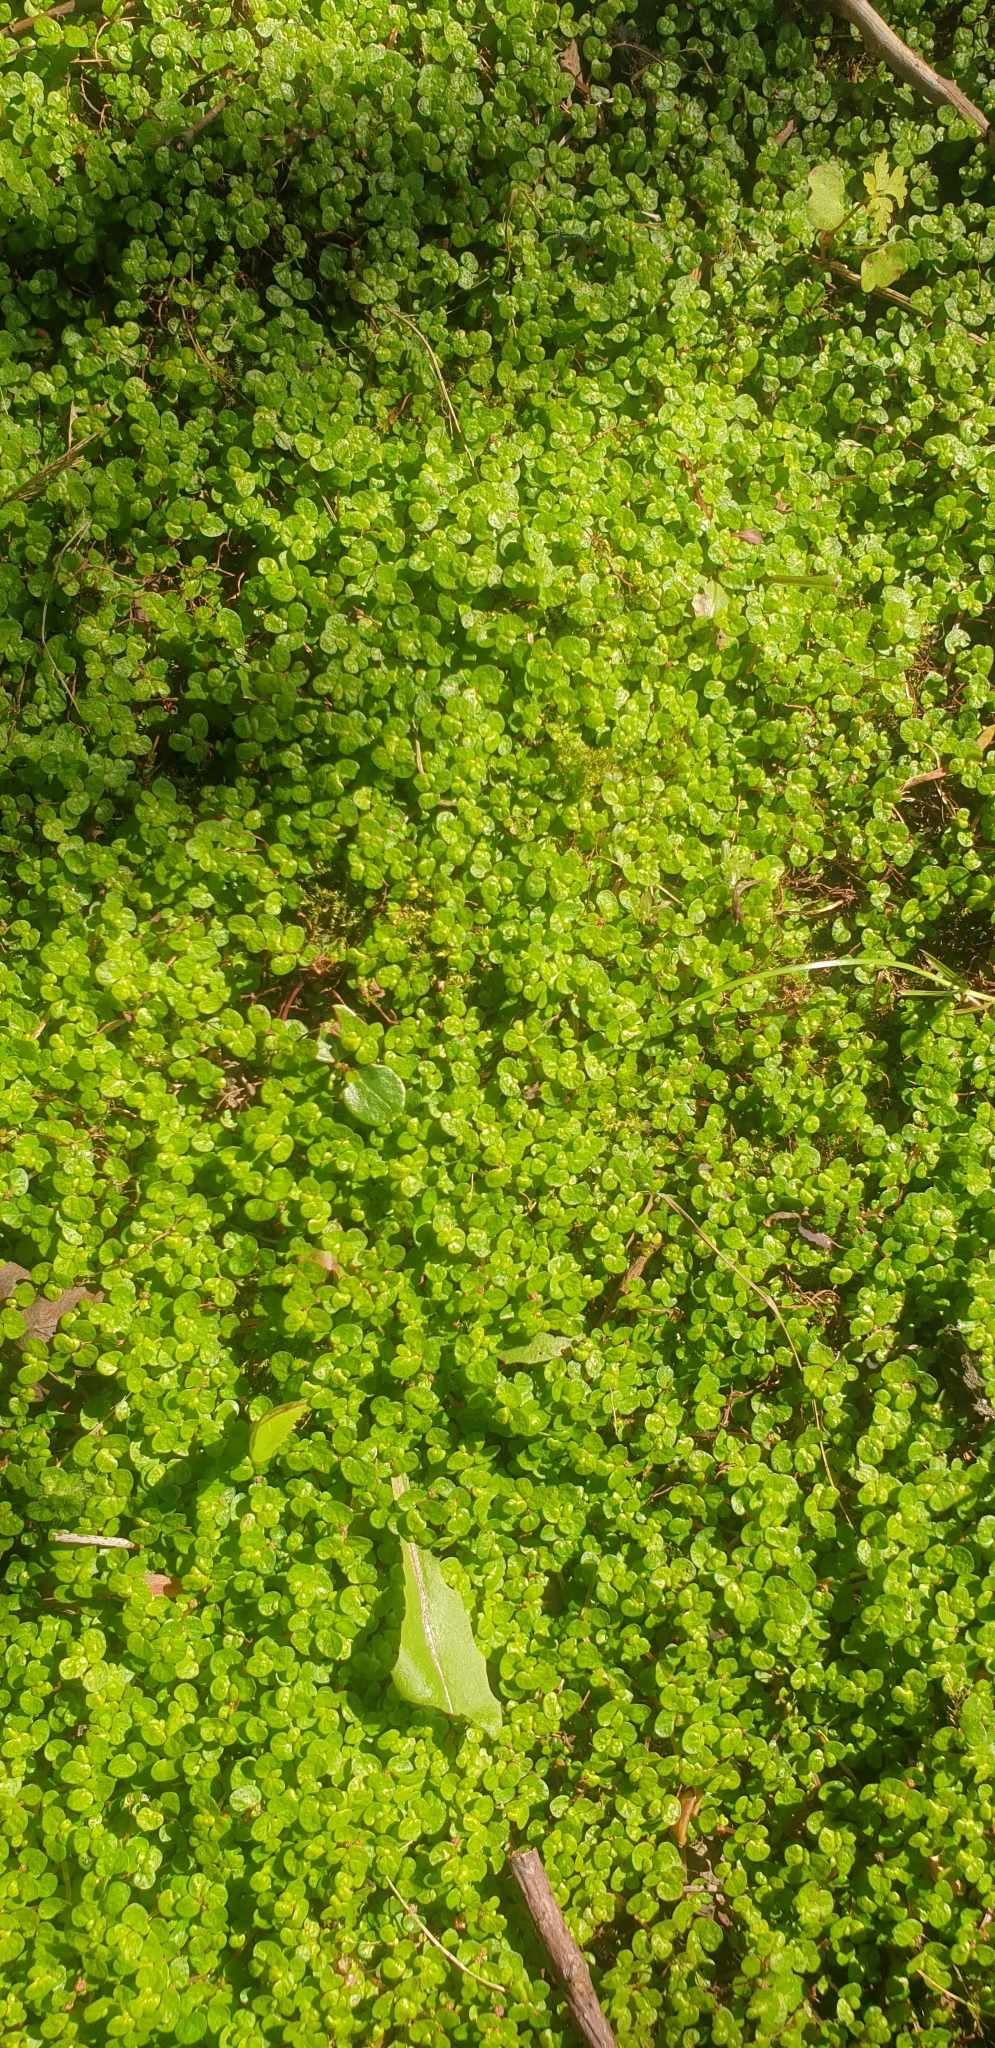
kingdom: Plantae
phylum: Tracheophyta
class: Magnoliopsida
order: Rosales
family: Urticaceae
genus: Soleirolia
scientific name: Soleirolia soleirolii
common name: Mind-your-own-business
